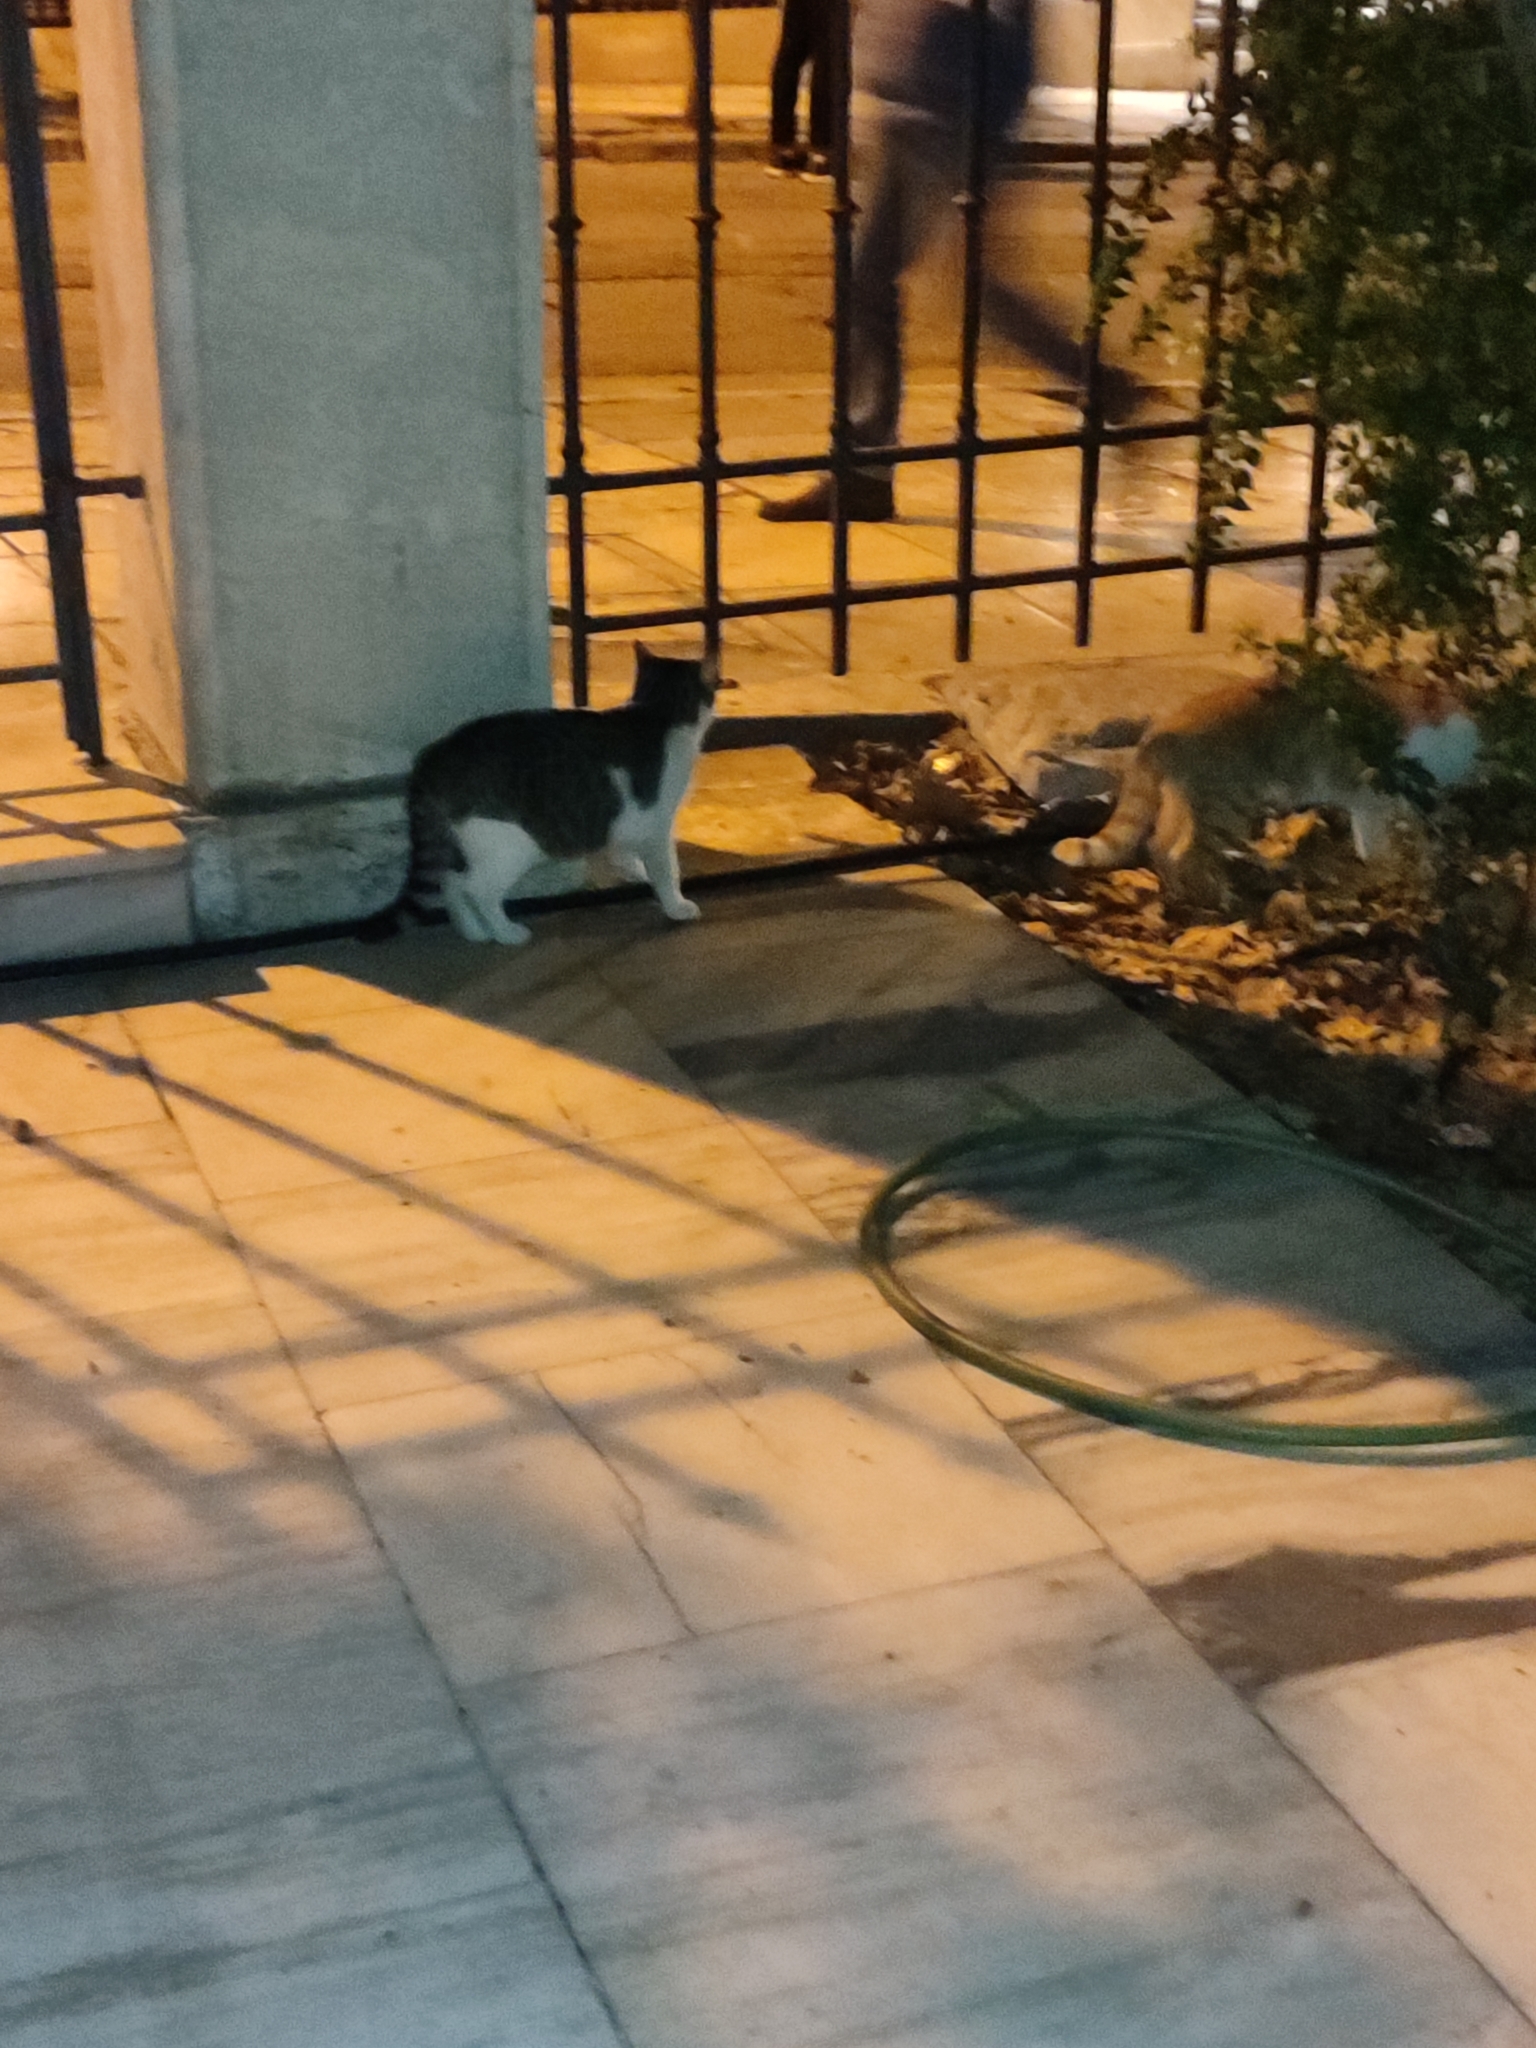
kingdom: Animalia
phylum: Chordata
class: Mammalia
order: Carnivora
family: Felidae
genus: Felis
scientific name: Felis catus
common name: Domestic cat
